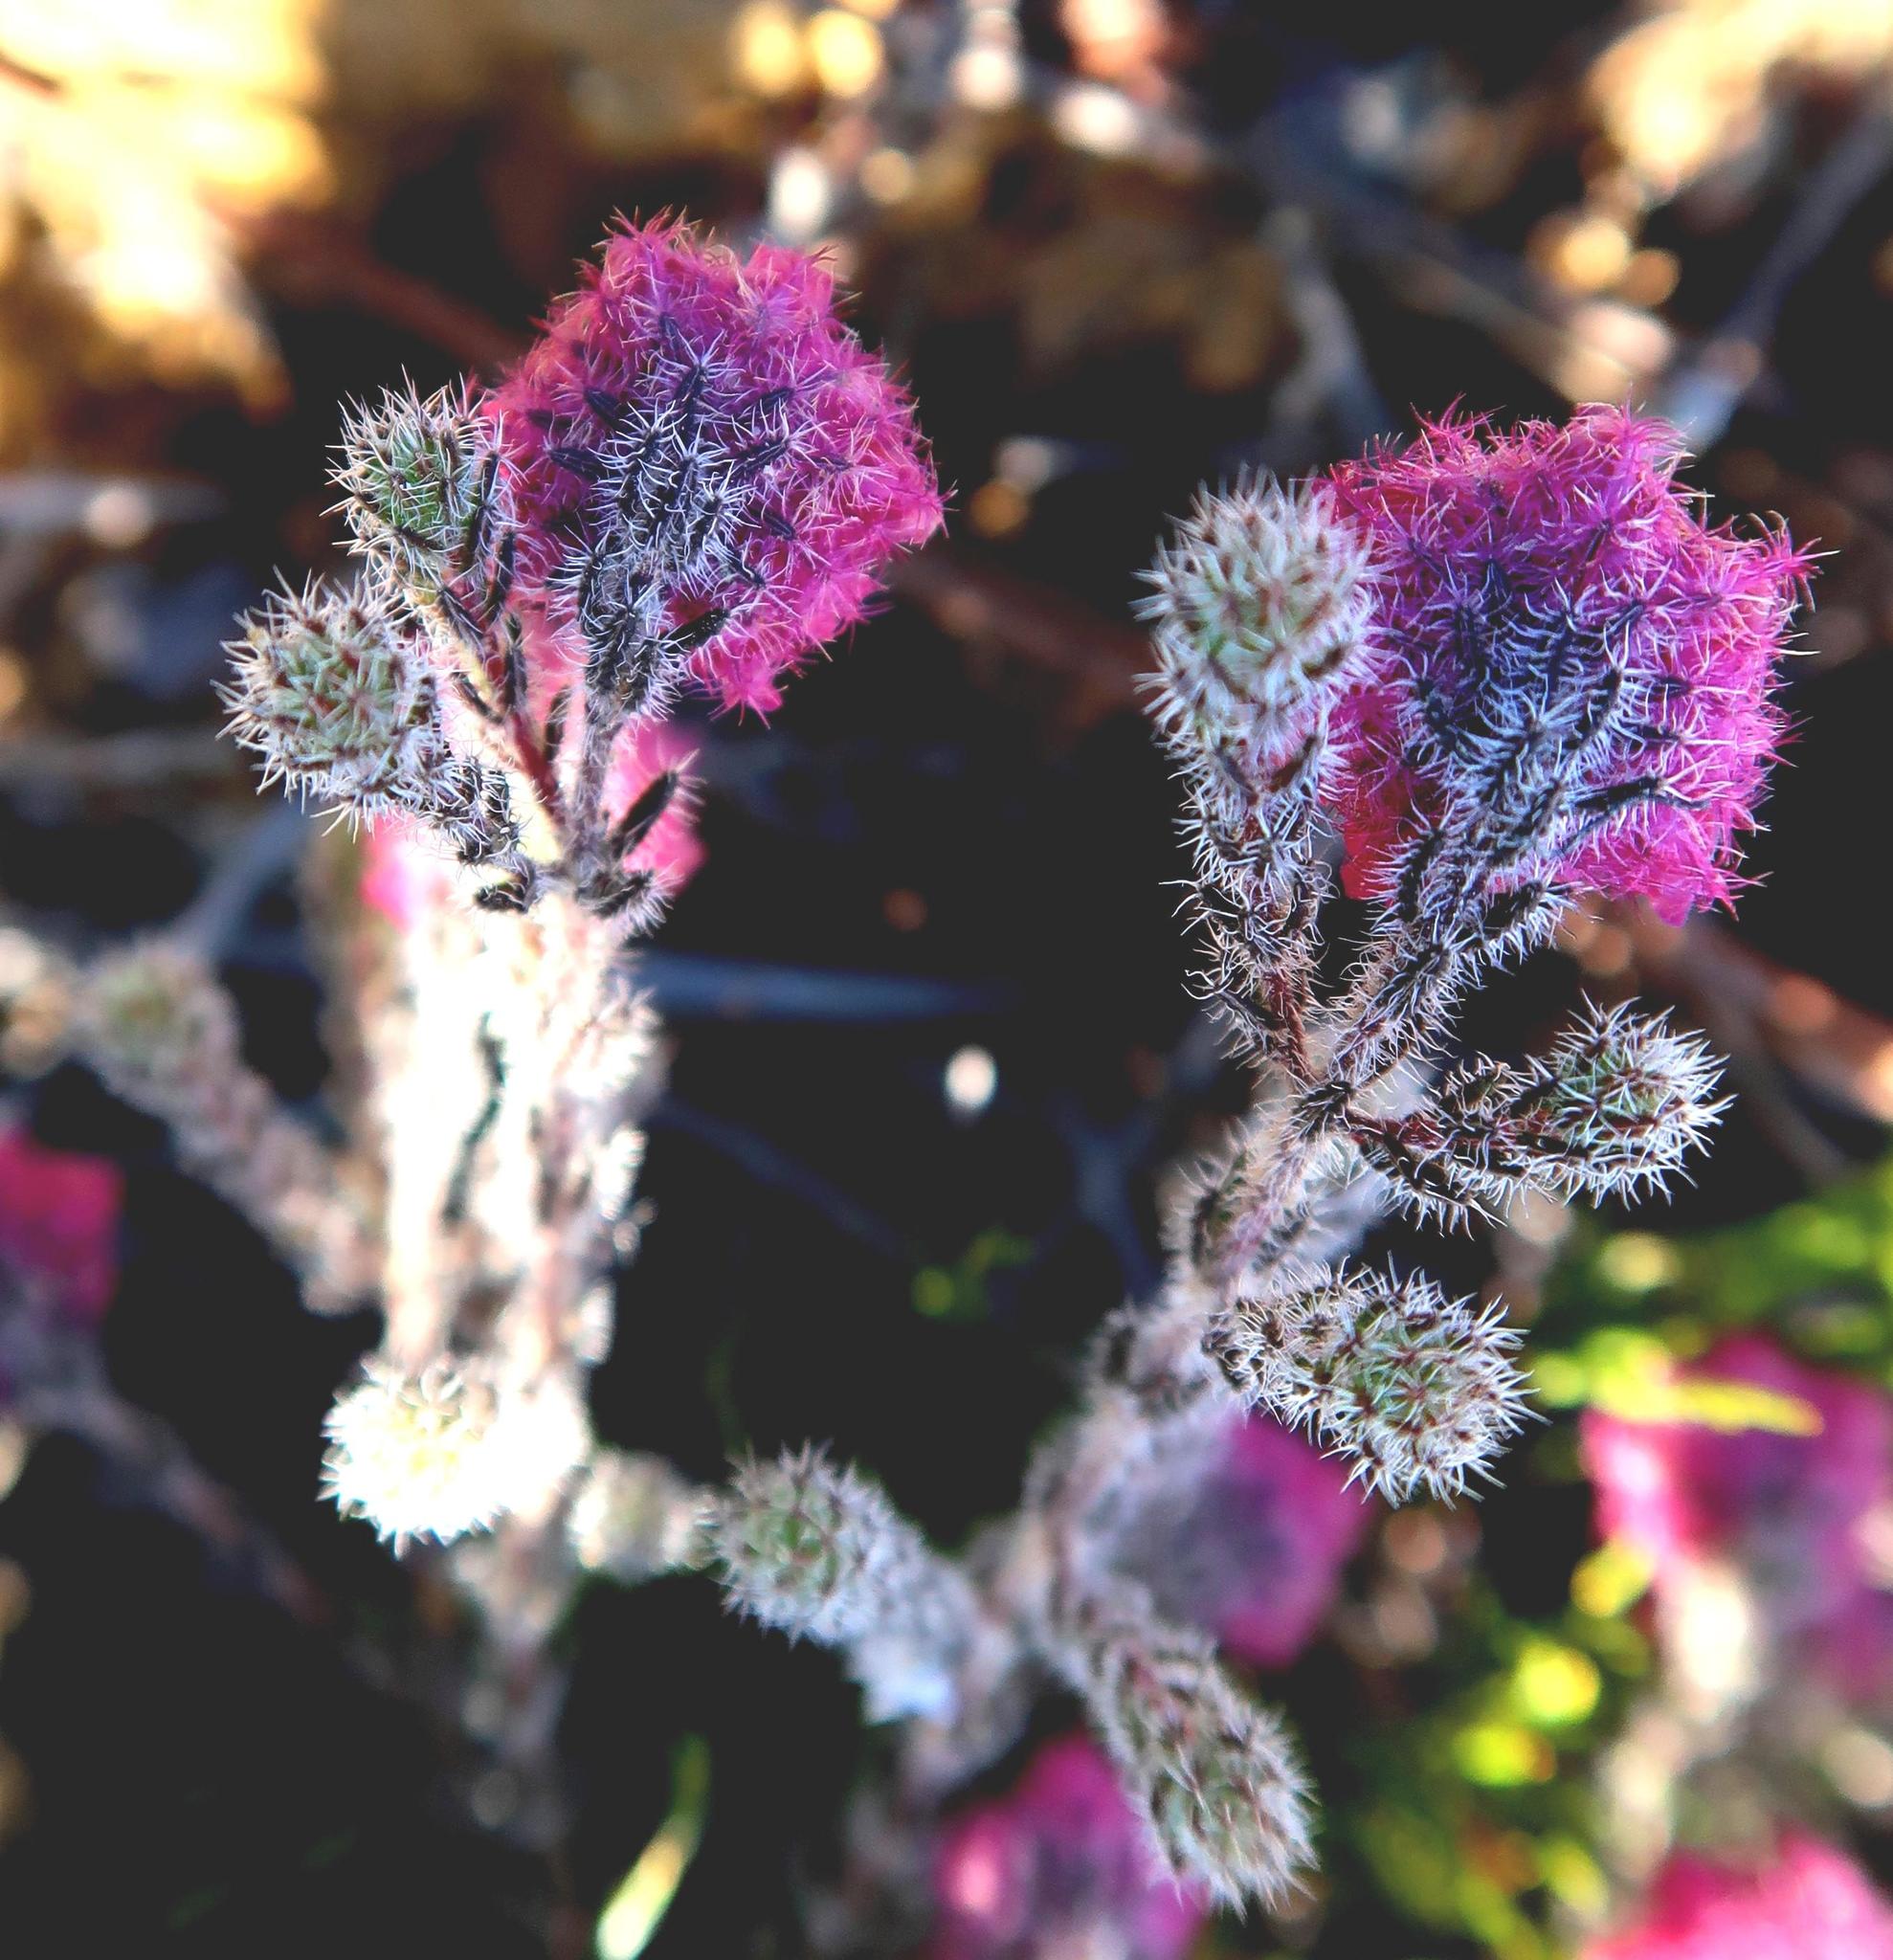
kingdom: Plantae
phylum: Tracheophyta
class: Magnoliopsida
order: Ericales
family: Ericaceae
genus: Erica
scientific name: Erica solandra
